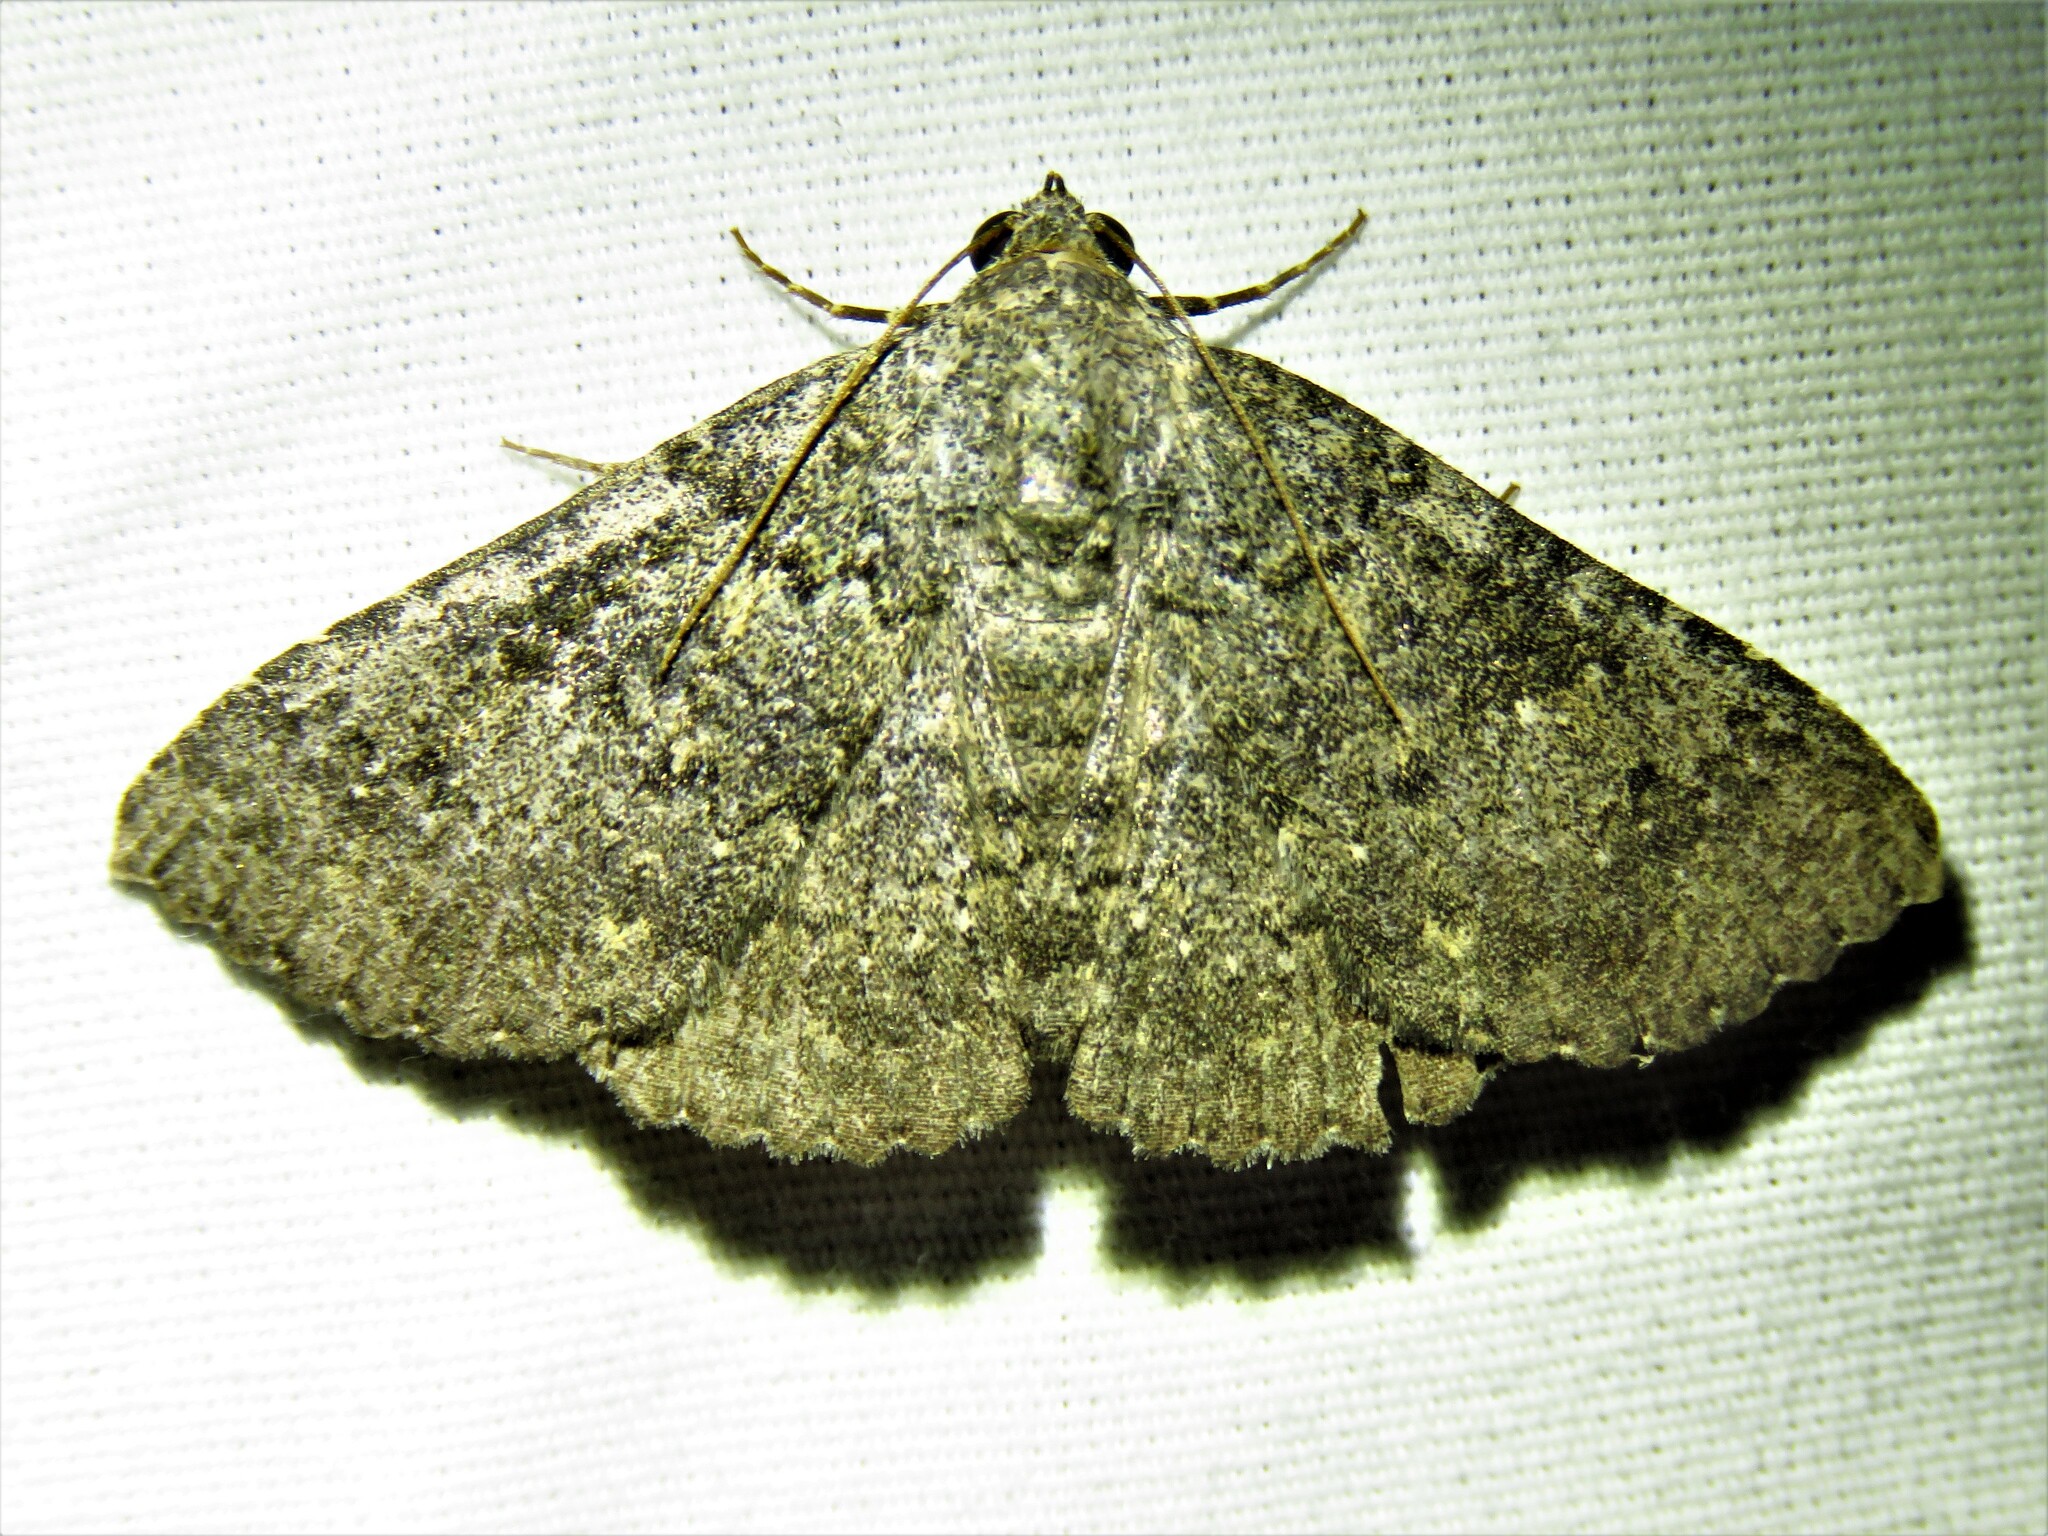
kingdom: Animalia
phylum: Arthropoda
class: Insecta
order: Lepidoptera
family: Erebidae
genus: Matigramma
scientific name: Matigramma obscurior
